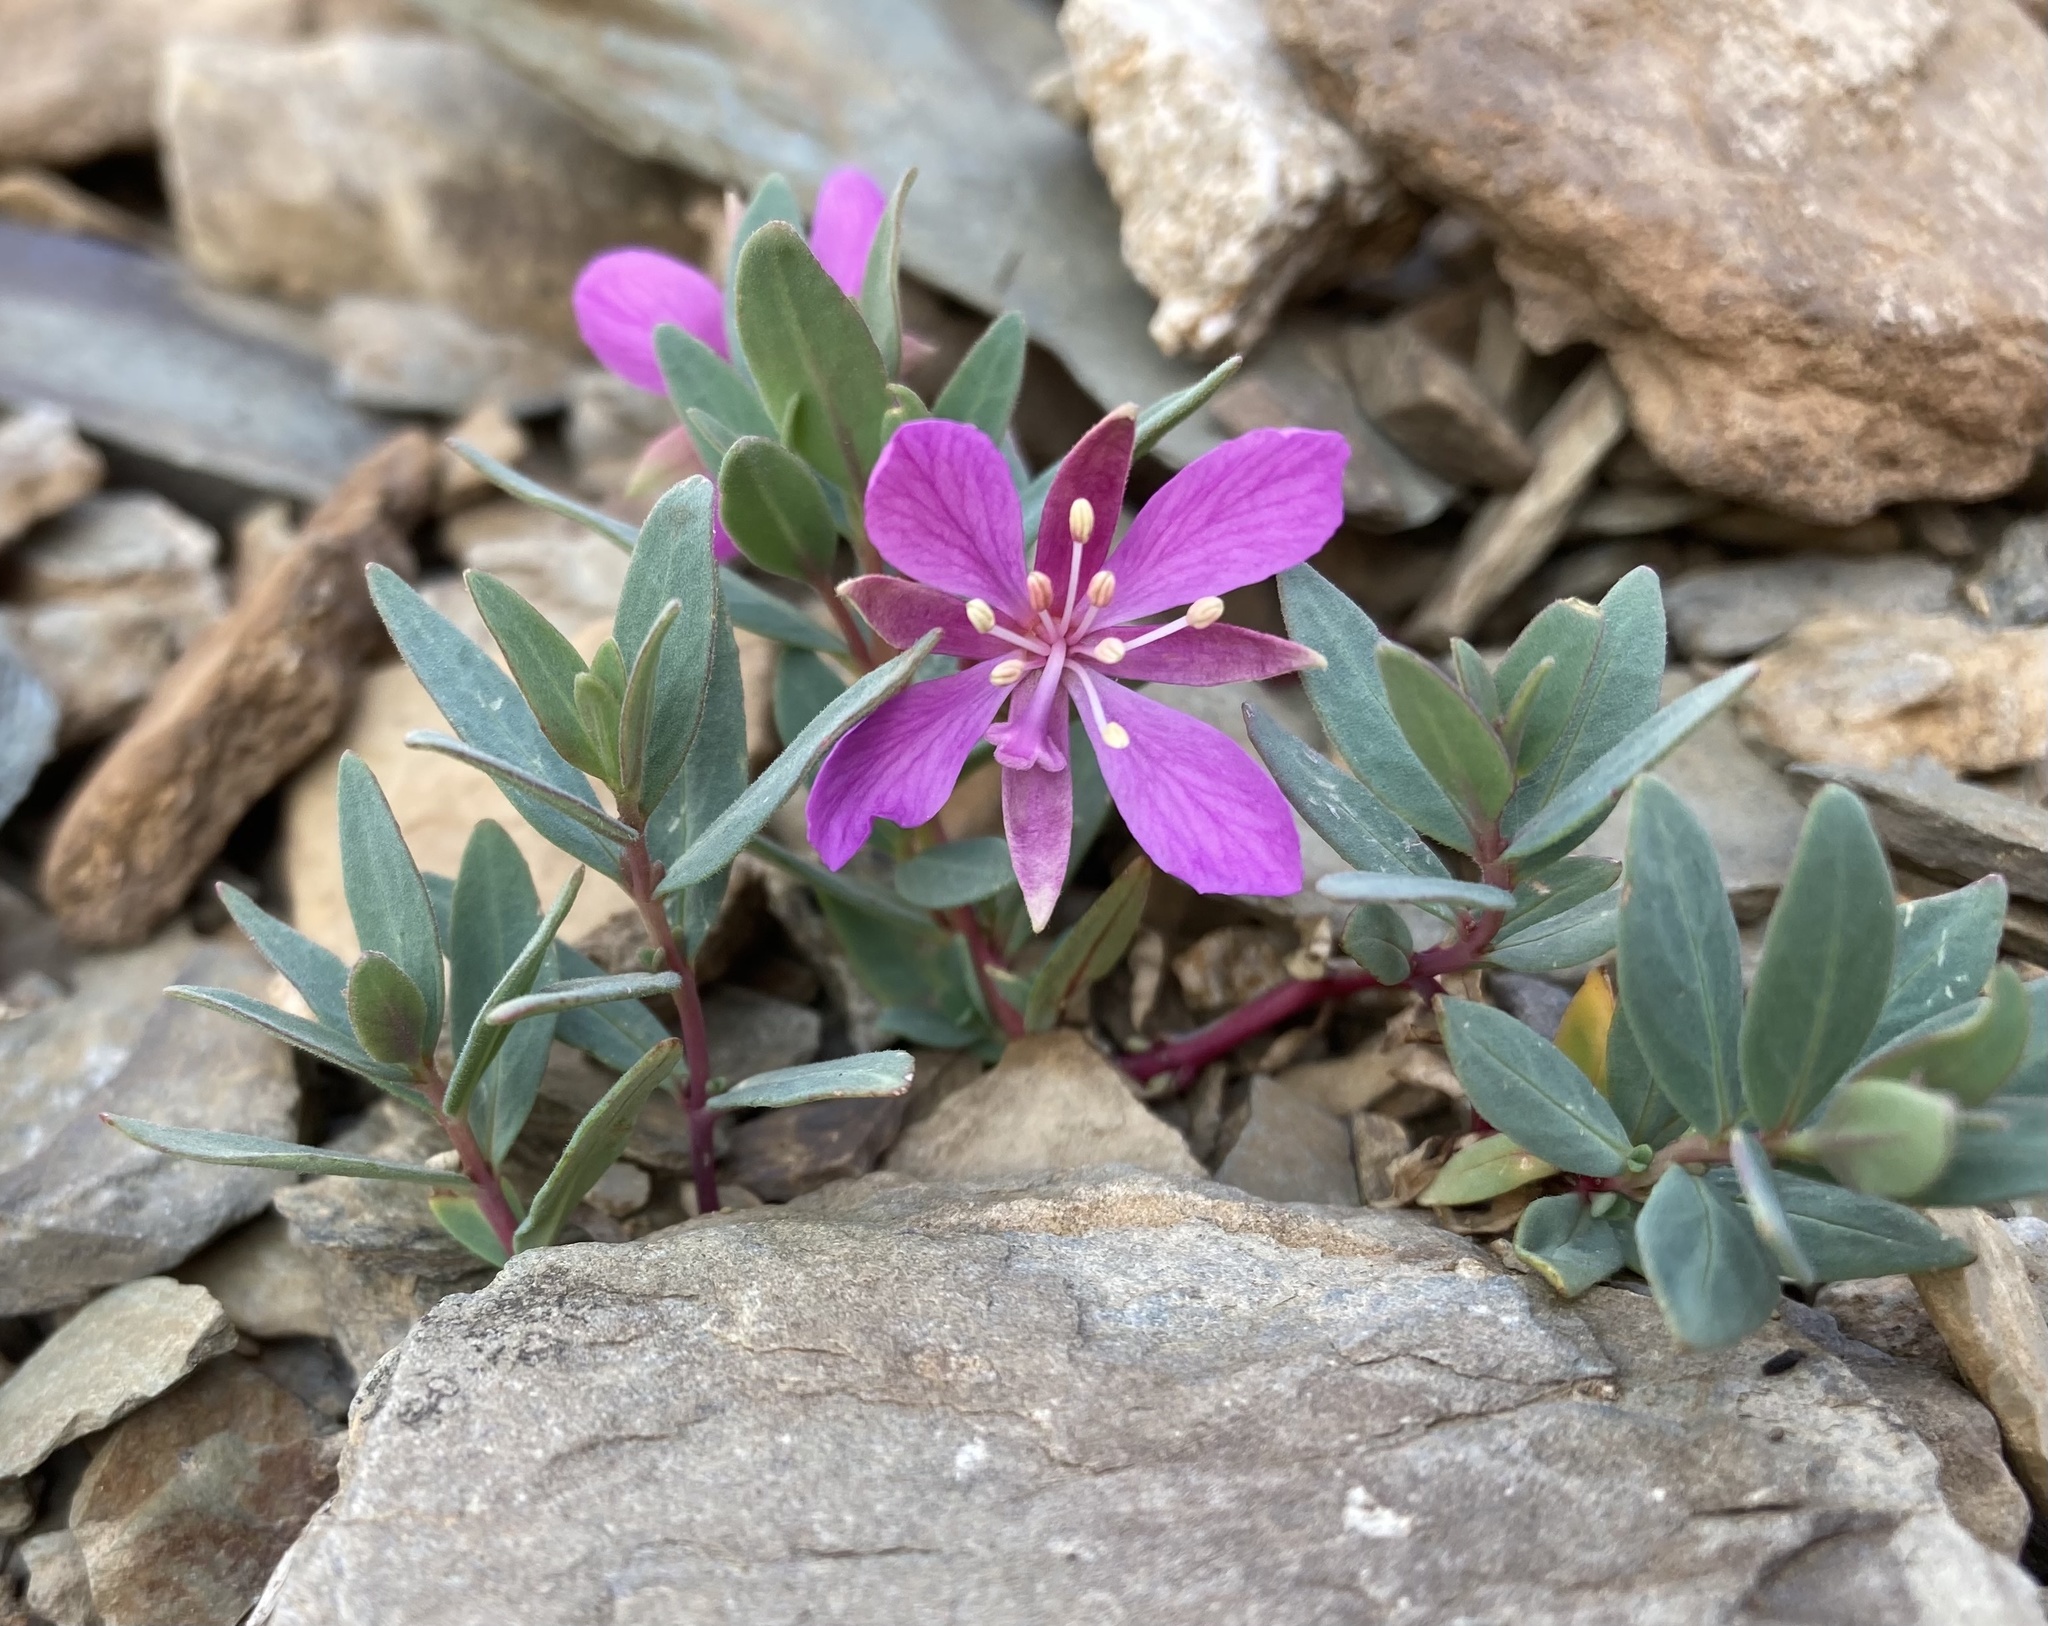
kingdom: Plantae
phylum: Tracheophyta
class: Magnoliopsida
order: Myrtales
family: Onagraceae
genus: Chamaenerion
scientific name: Chamaenerion latifolium
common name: Dwarf fireweed
